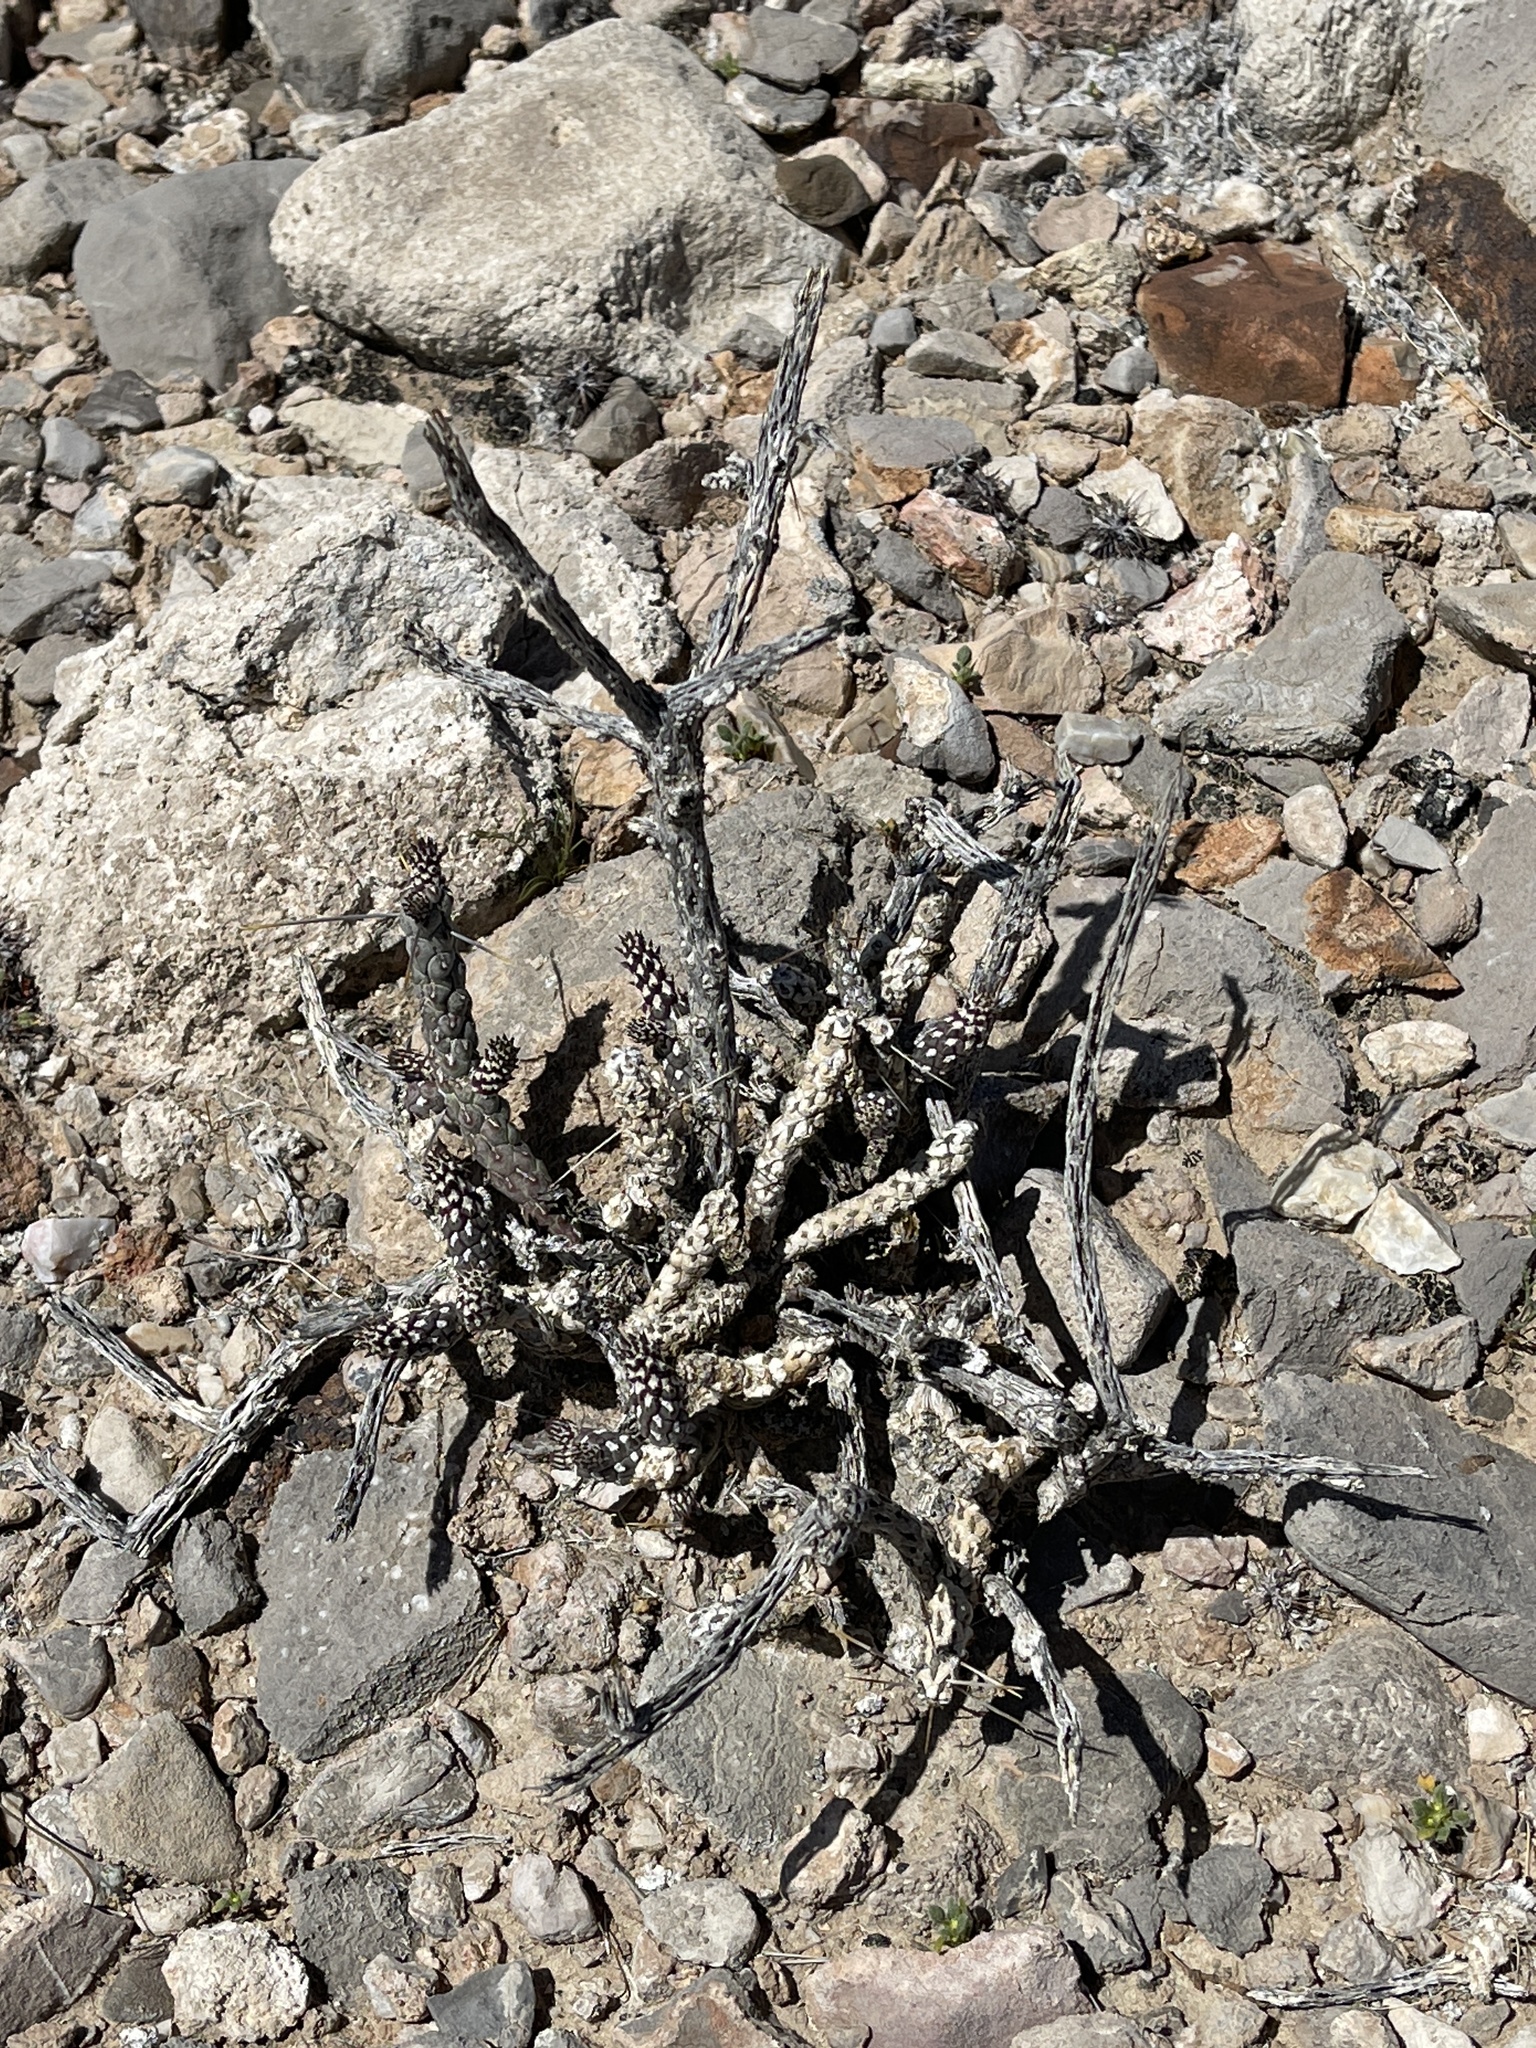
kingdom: Plantae
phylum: Tracheophyta
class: Magnoliopsida
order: Caryophyllales
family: Cactaceae
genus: Cylindropuntia
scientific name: Cylindropuntia ramosissima
